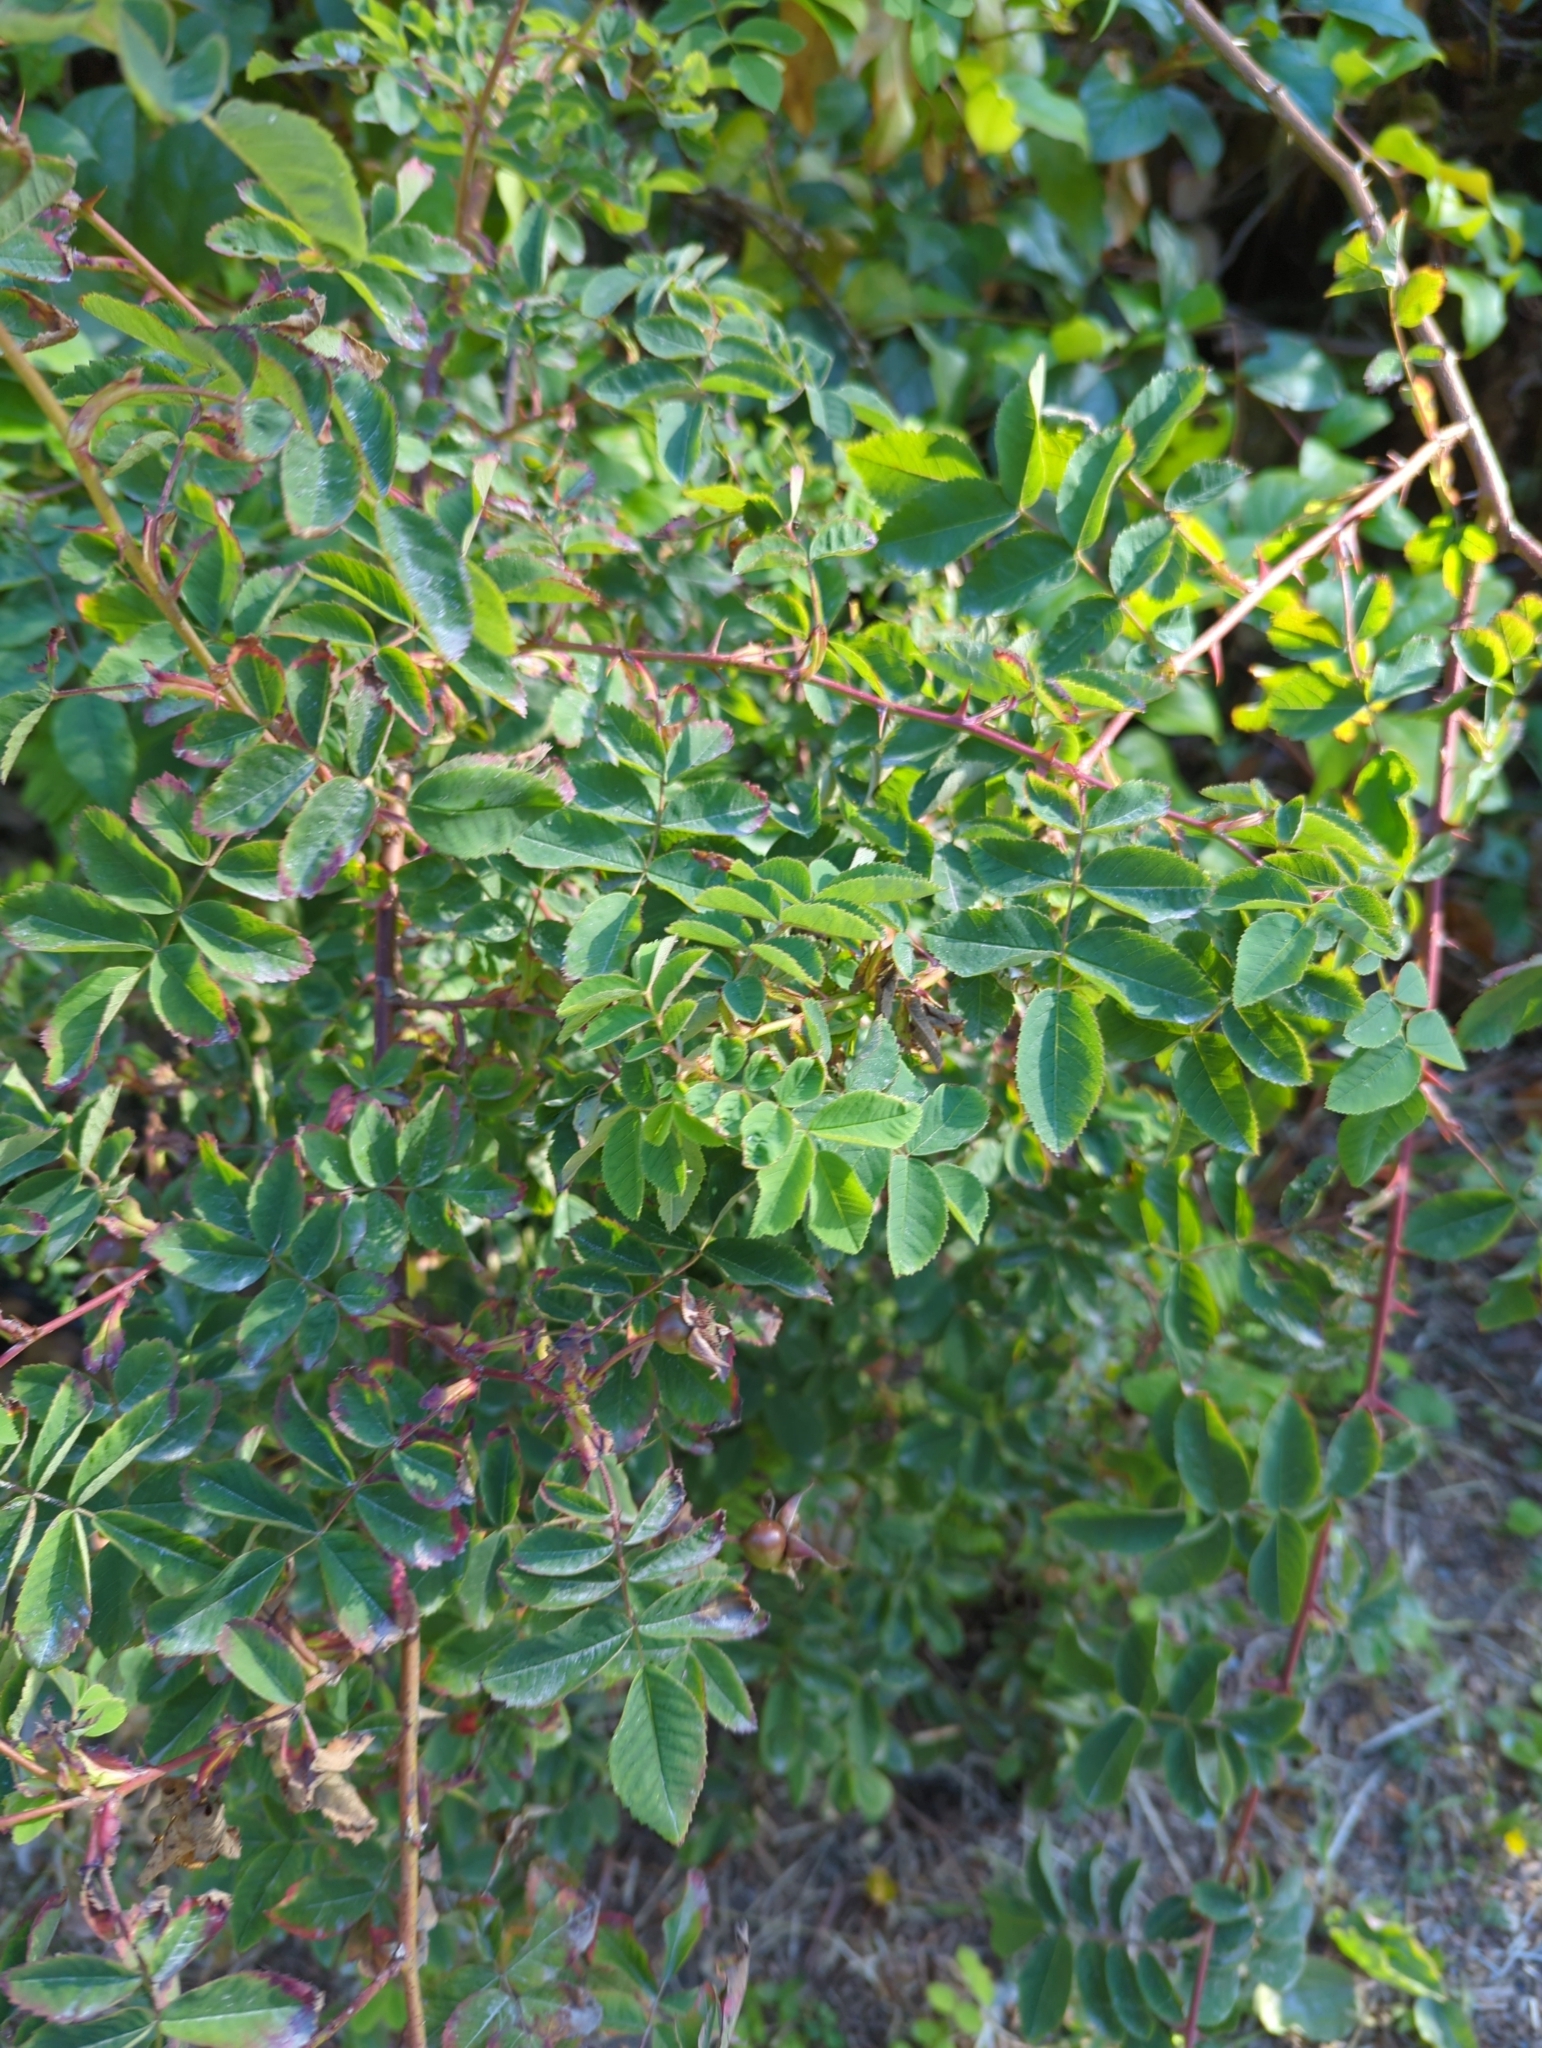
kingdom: Plantae
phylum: Tracheophyta
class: Magnoliopsida
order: Rosales
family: Rosaceae
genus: Rosa
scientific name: Rosa nutkana
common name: Nootka rose
